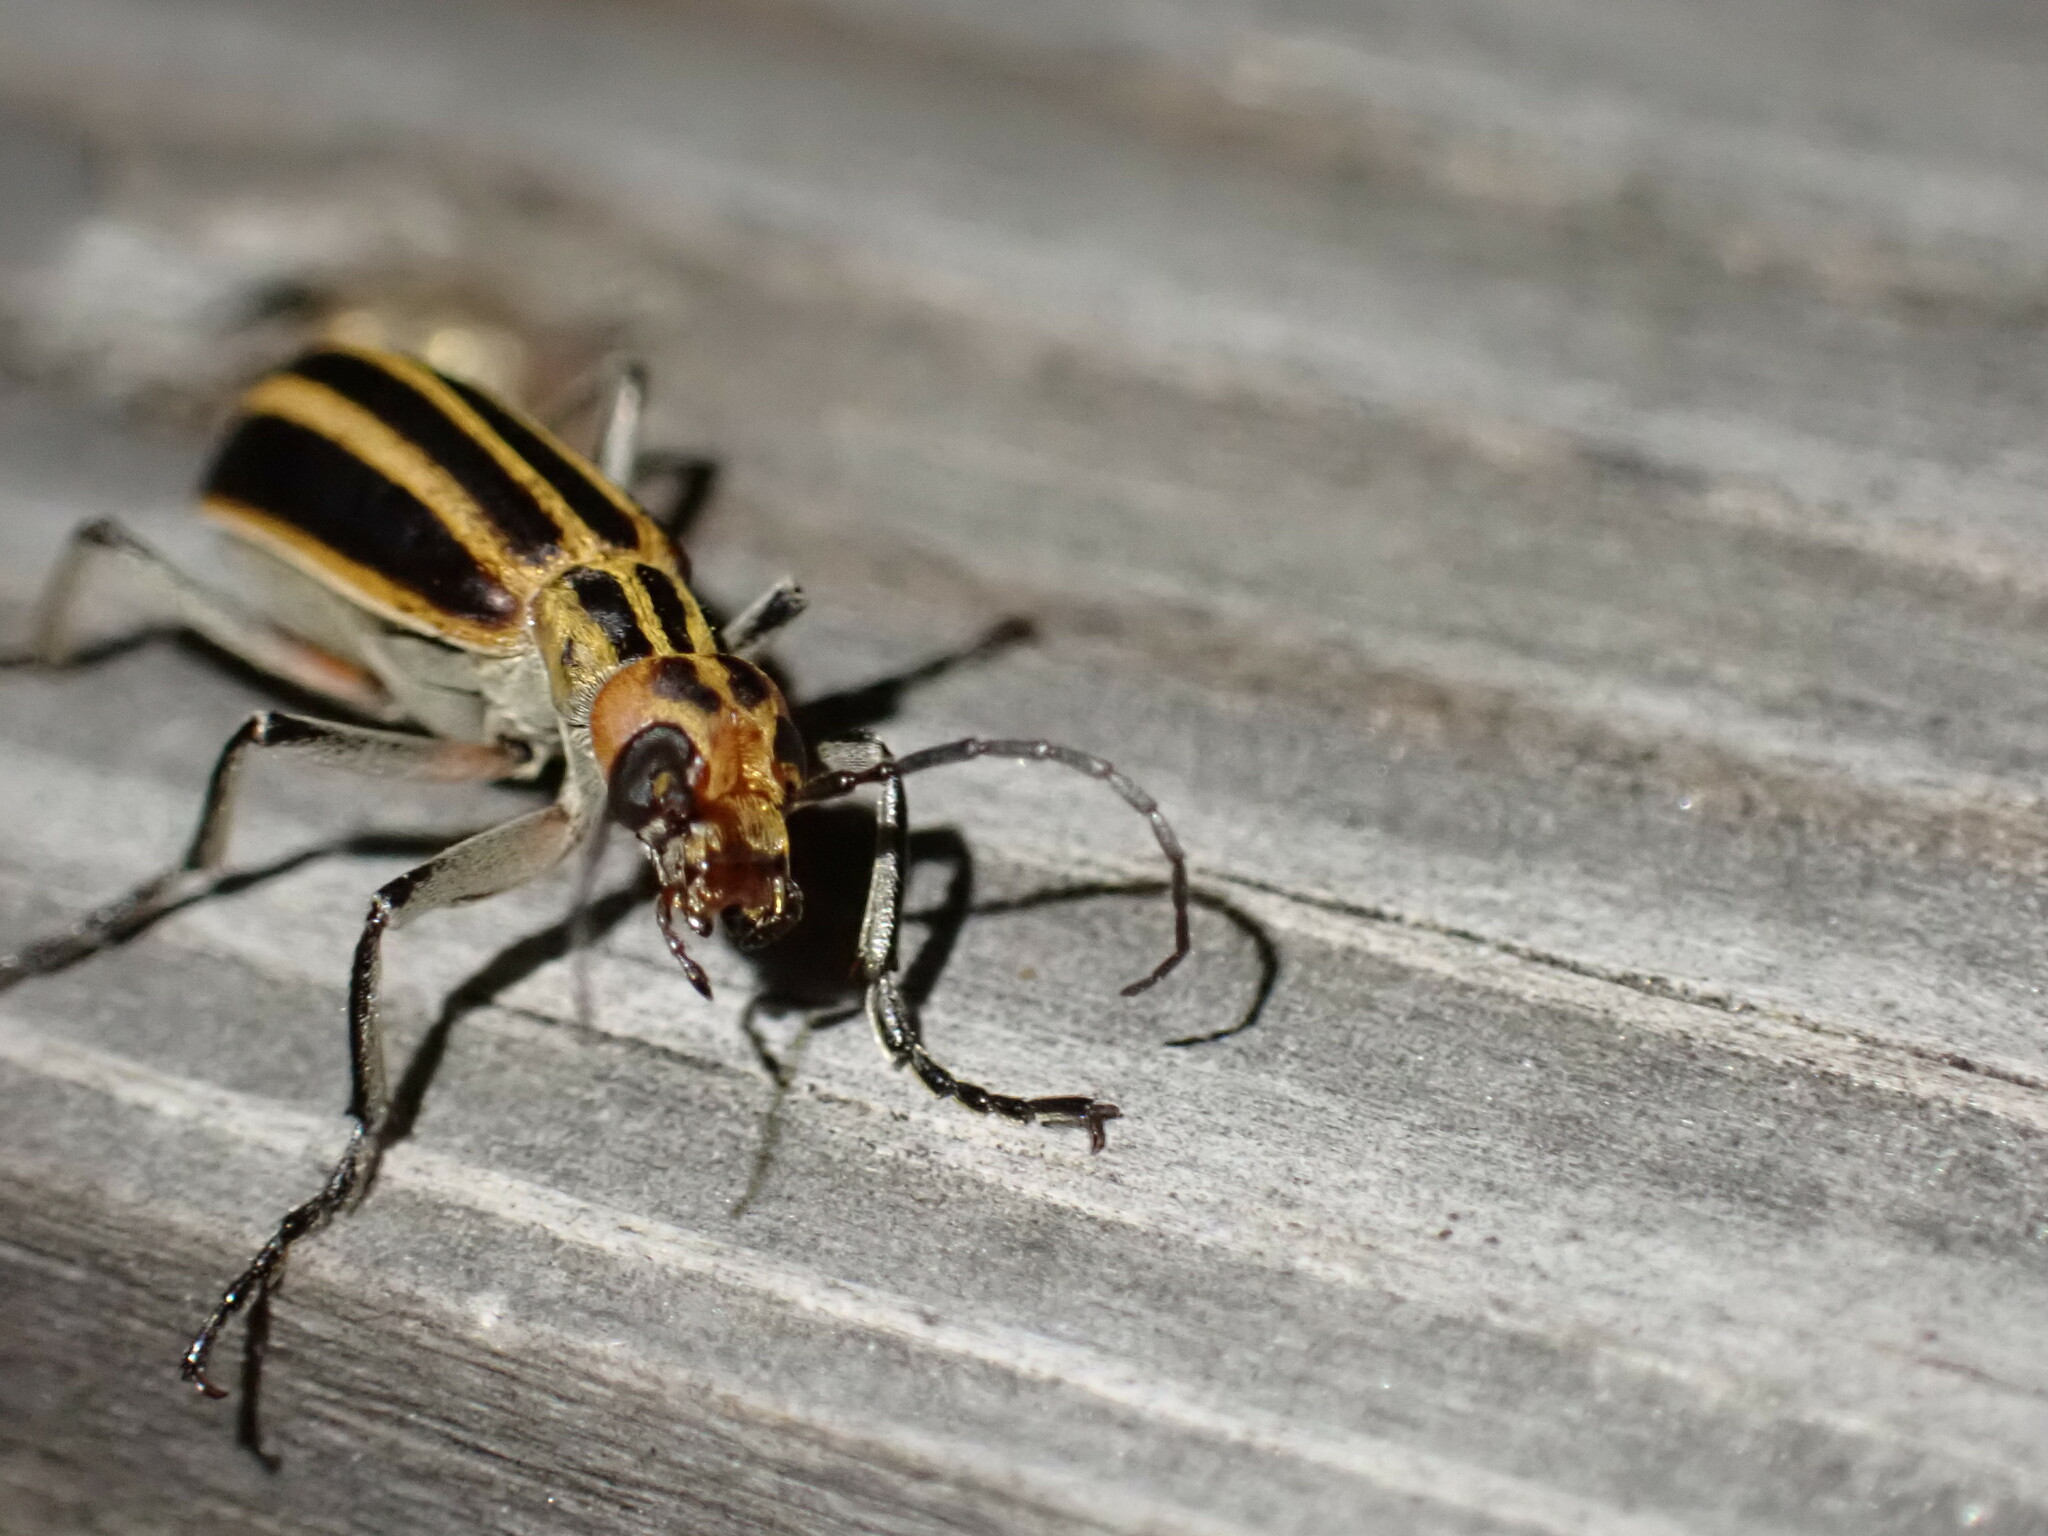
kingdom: Animalia
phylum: Arthropoda
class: Insecta
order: Coleoptera
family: Meloidae
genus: Epicauta
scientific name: Epicauta vittata
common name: Old-fashioned potato beetle
